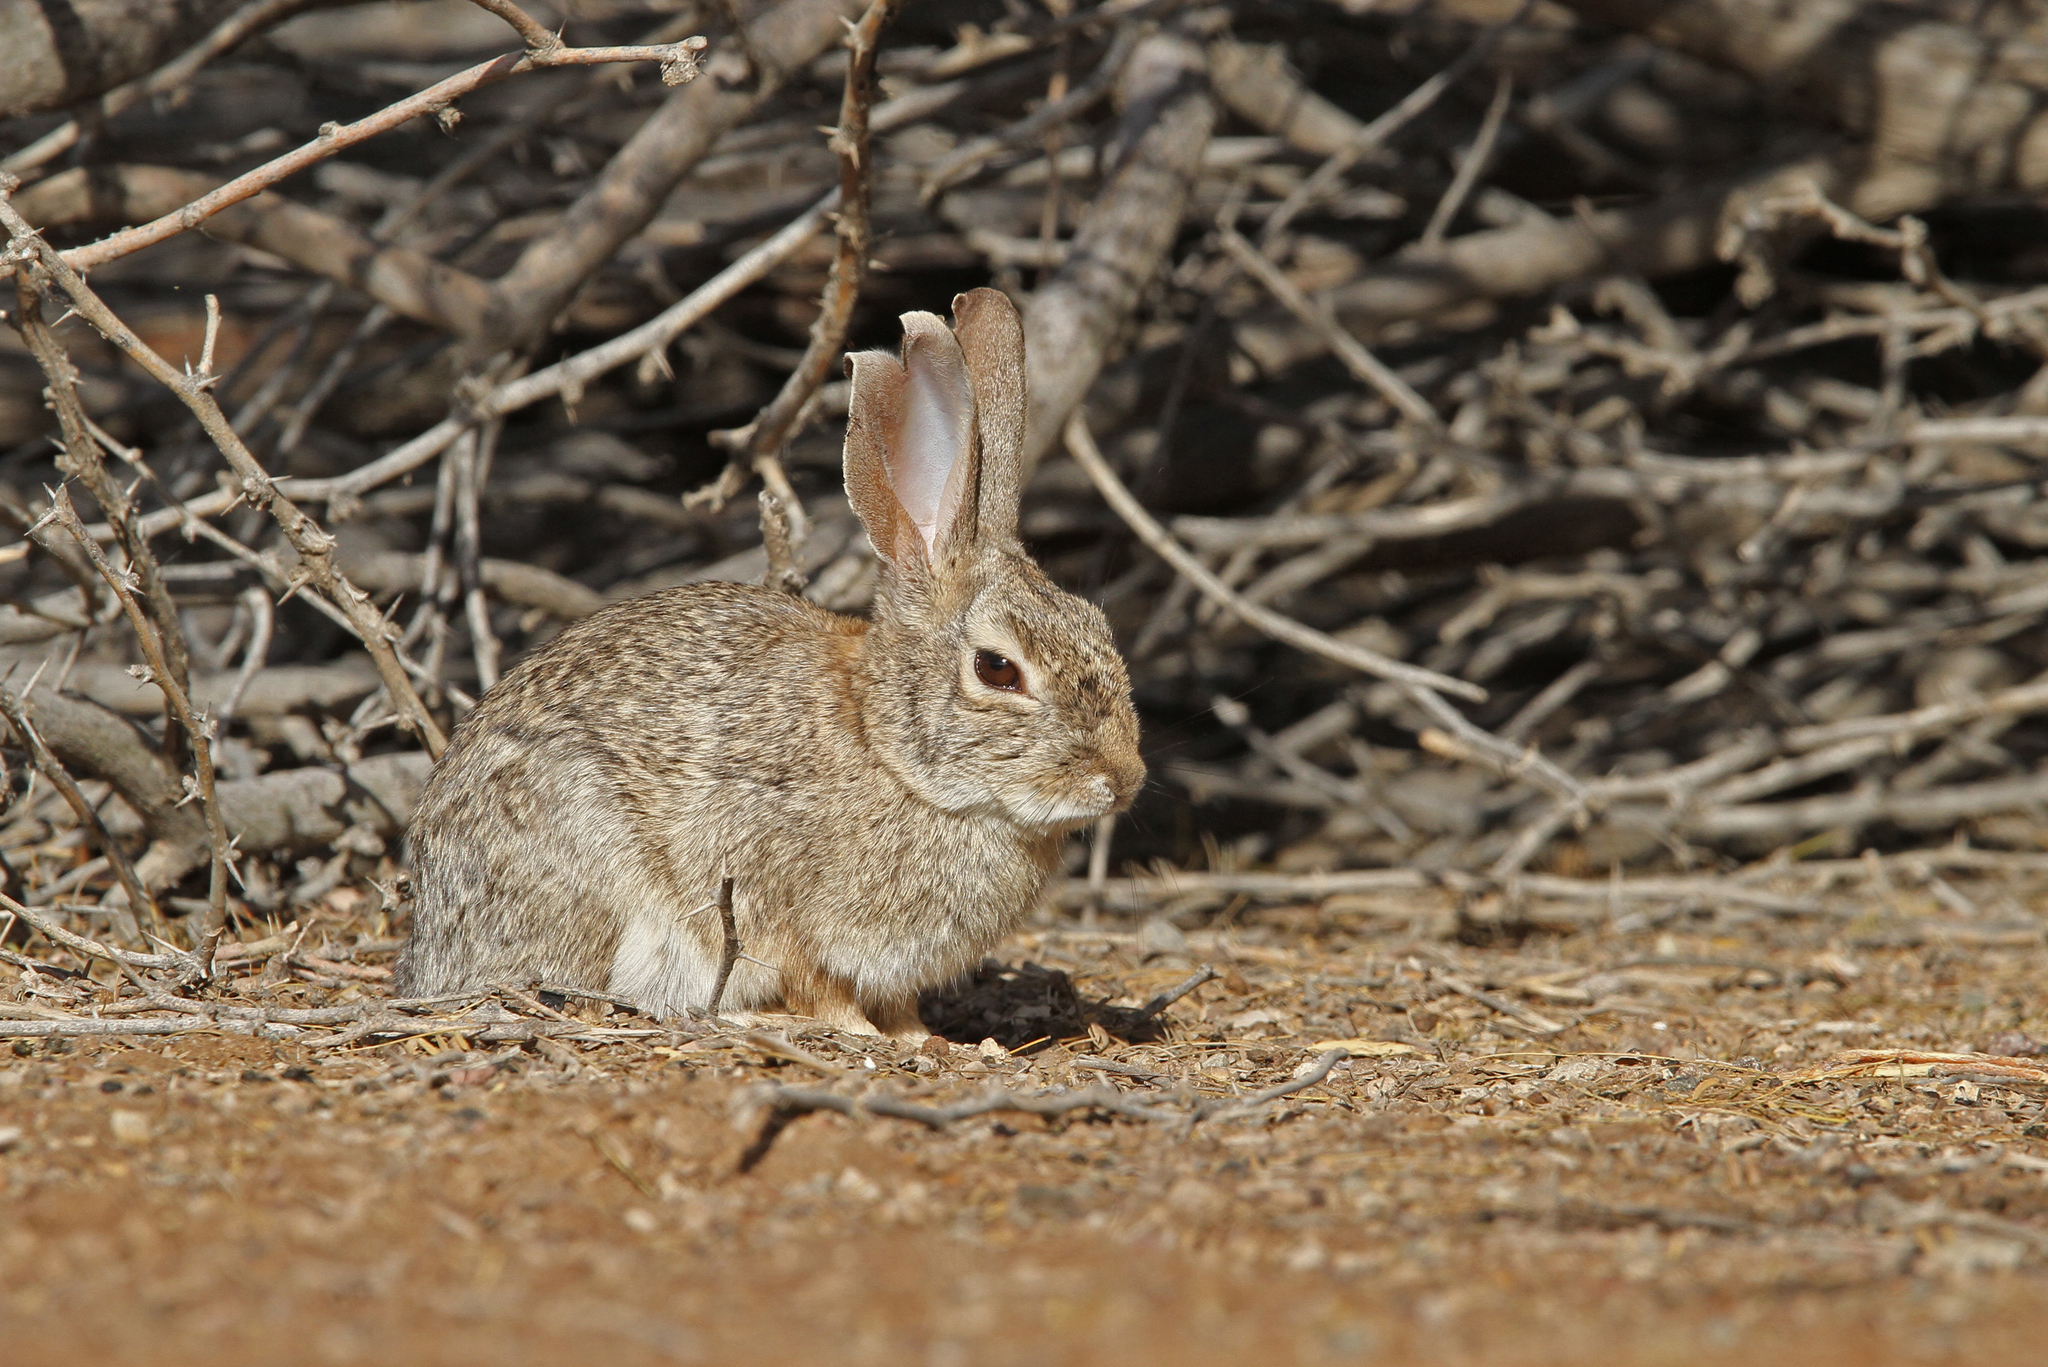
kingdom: Animalia
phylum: Chordata
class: Mammalia
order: Lagomorpha
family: Leporidae
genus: Sylvilagus
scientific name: Sylvilagus audubonii
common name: Desert cottontail
